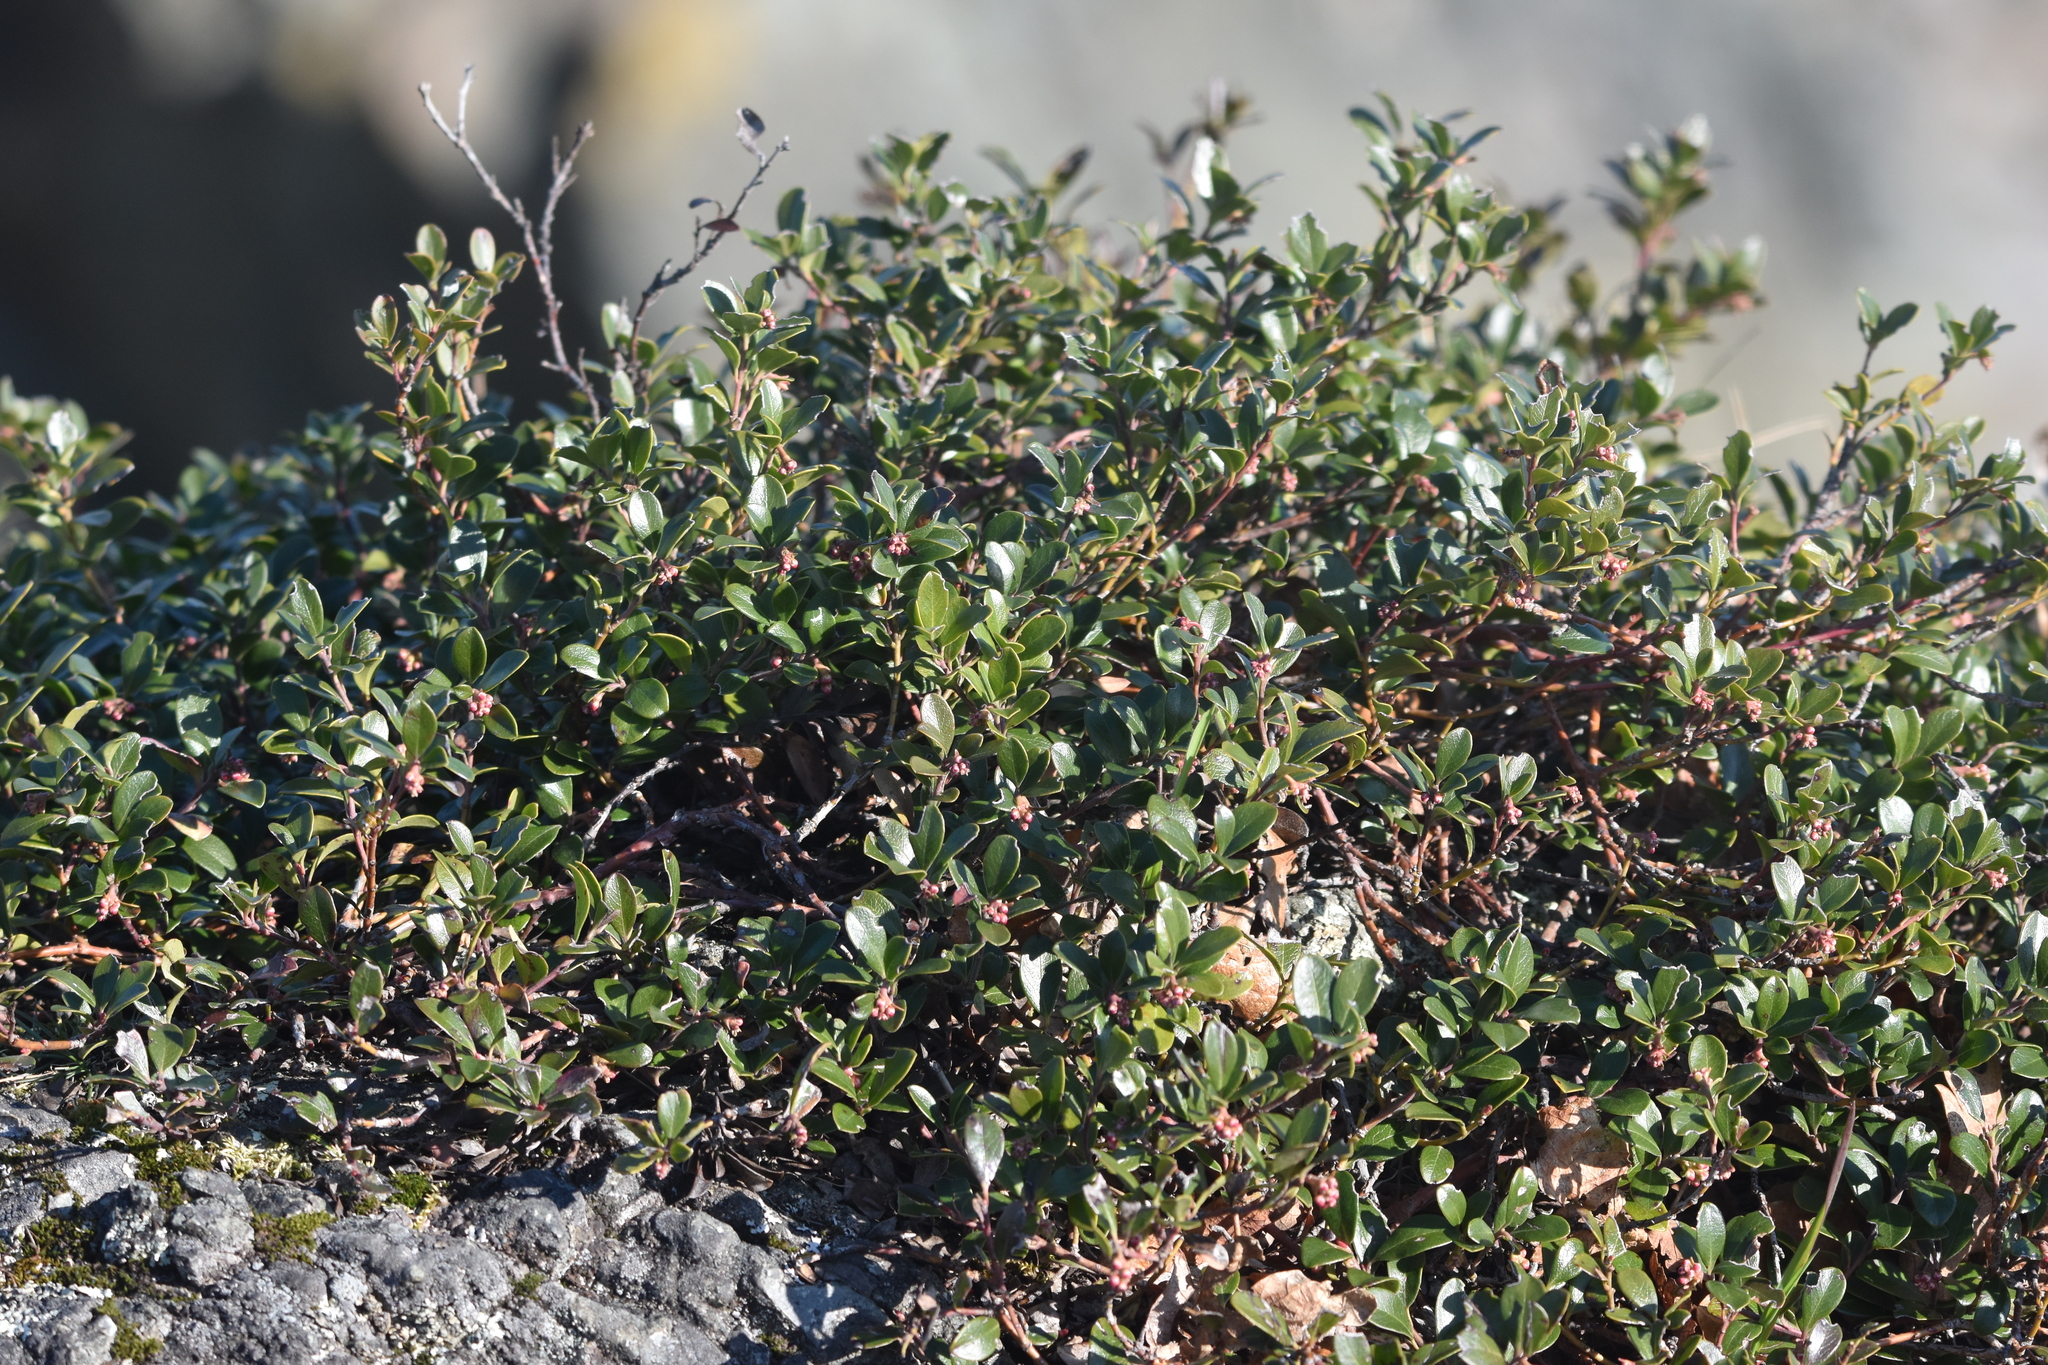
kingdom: Plantae
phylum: Tracheophyta
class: Magnoliopsida
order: Ericales
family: Ericaceae
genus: Arctostaphylos
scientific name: Arctostaphylos uva-ursi
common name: Bearberry
